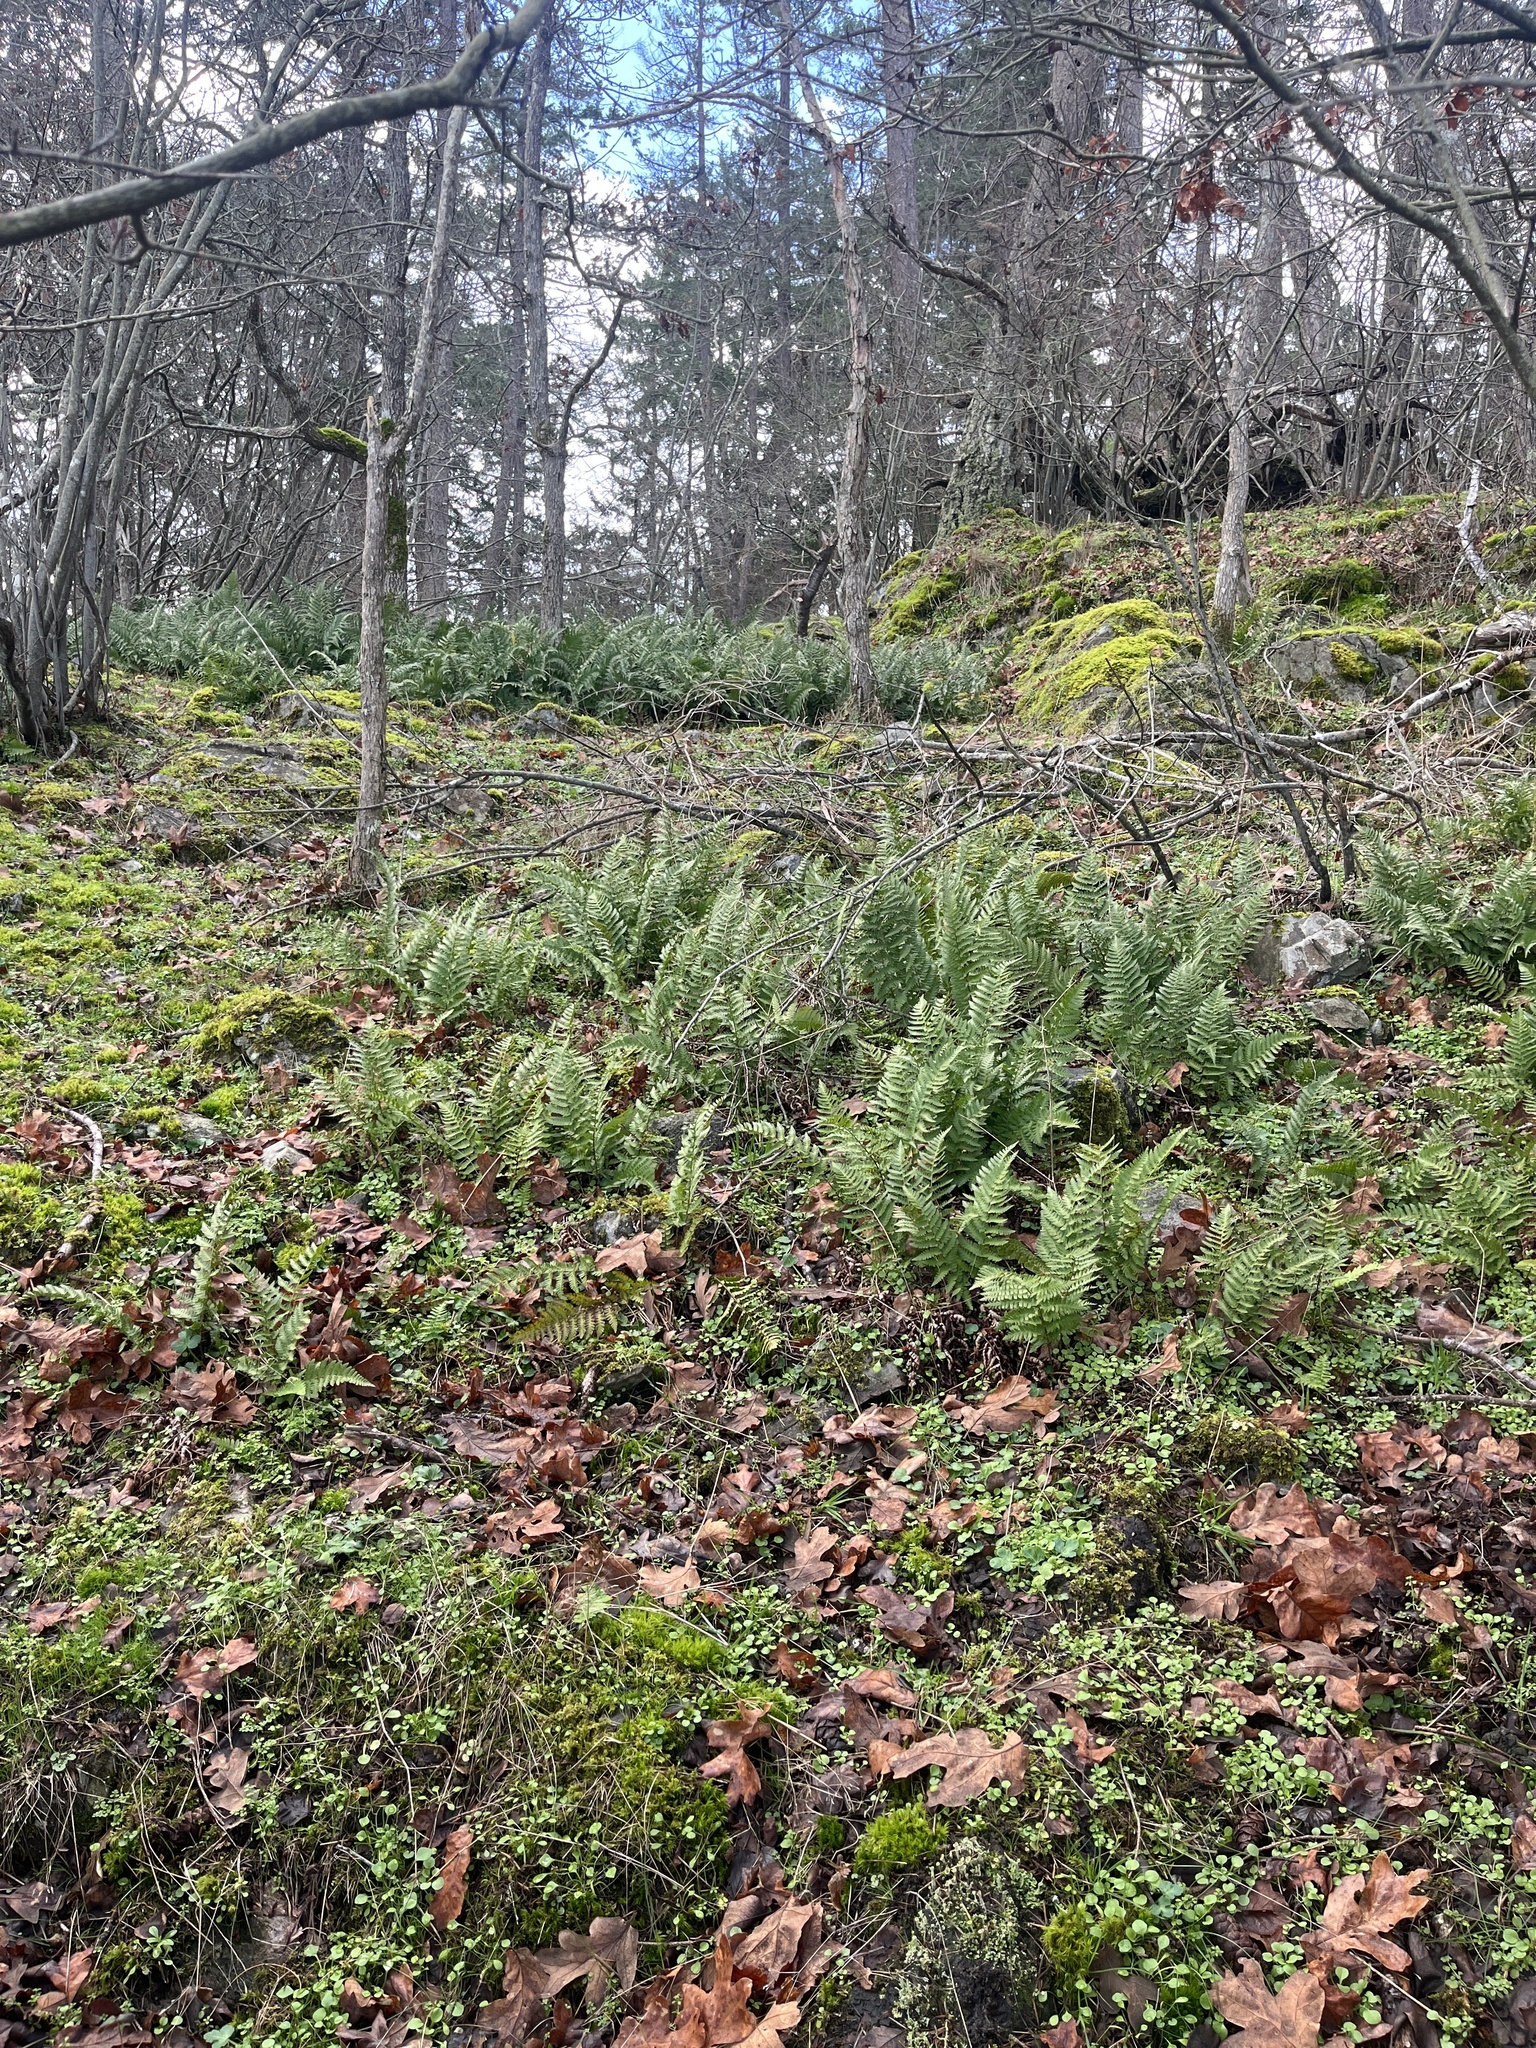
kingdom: Plantae
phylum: Tracheophyta
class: Polypodiopsida
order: Polypodiales
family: Dryopteridaceae
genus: Dryopteris
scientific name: Dryopteris arguta
